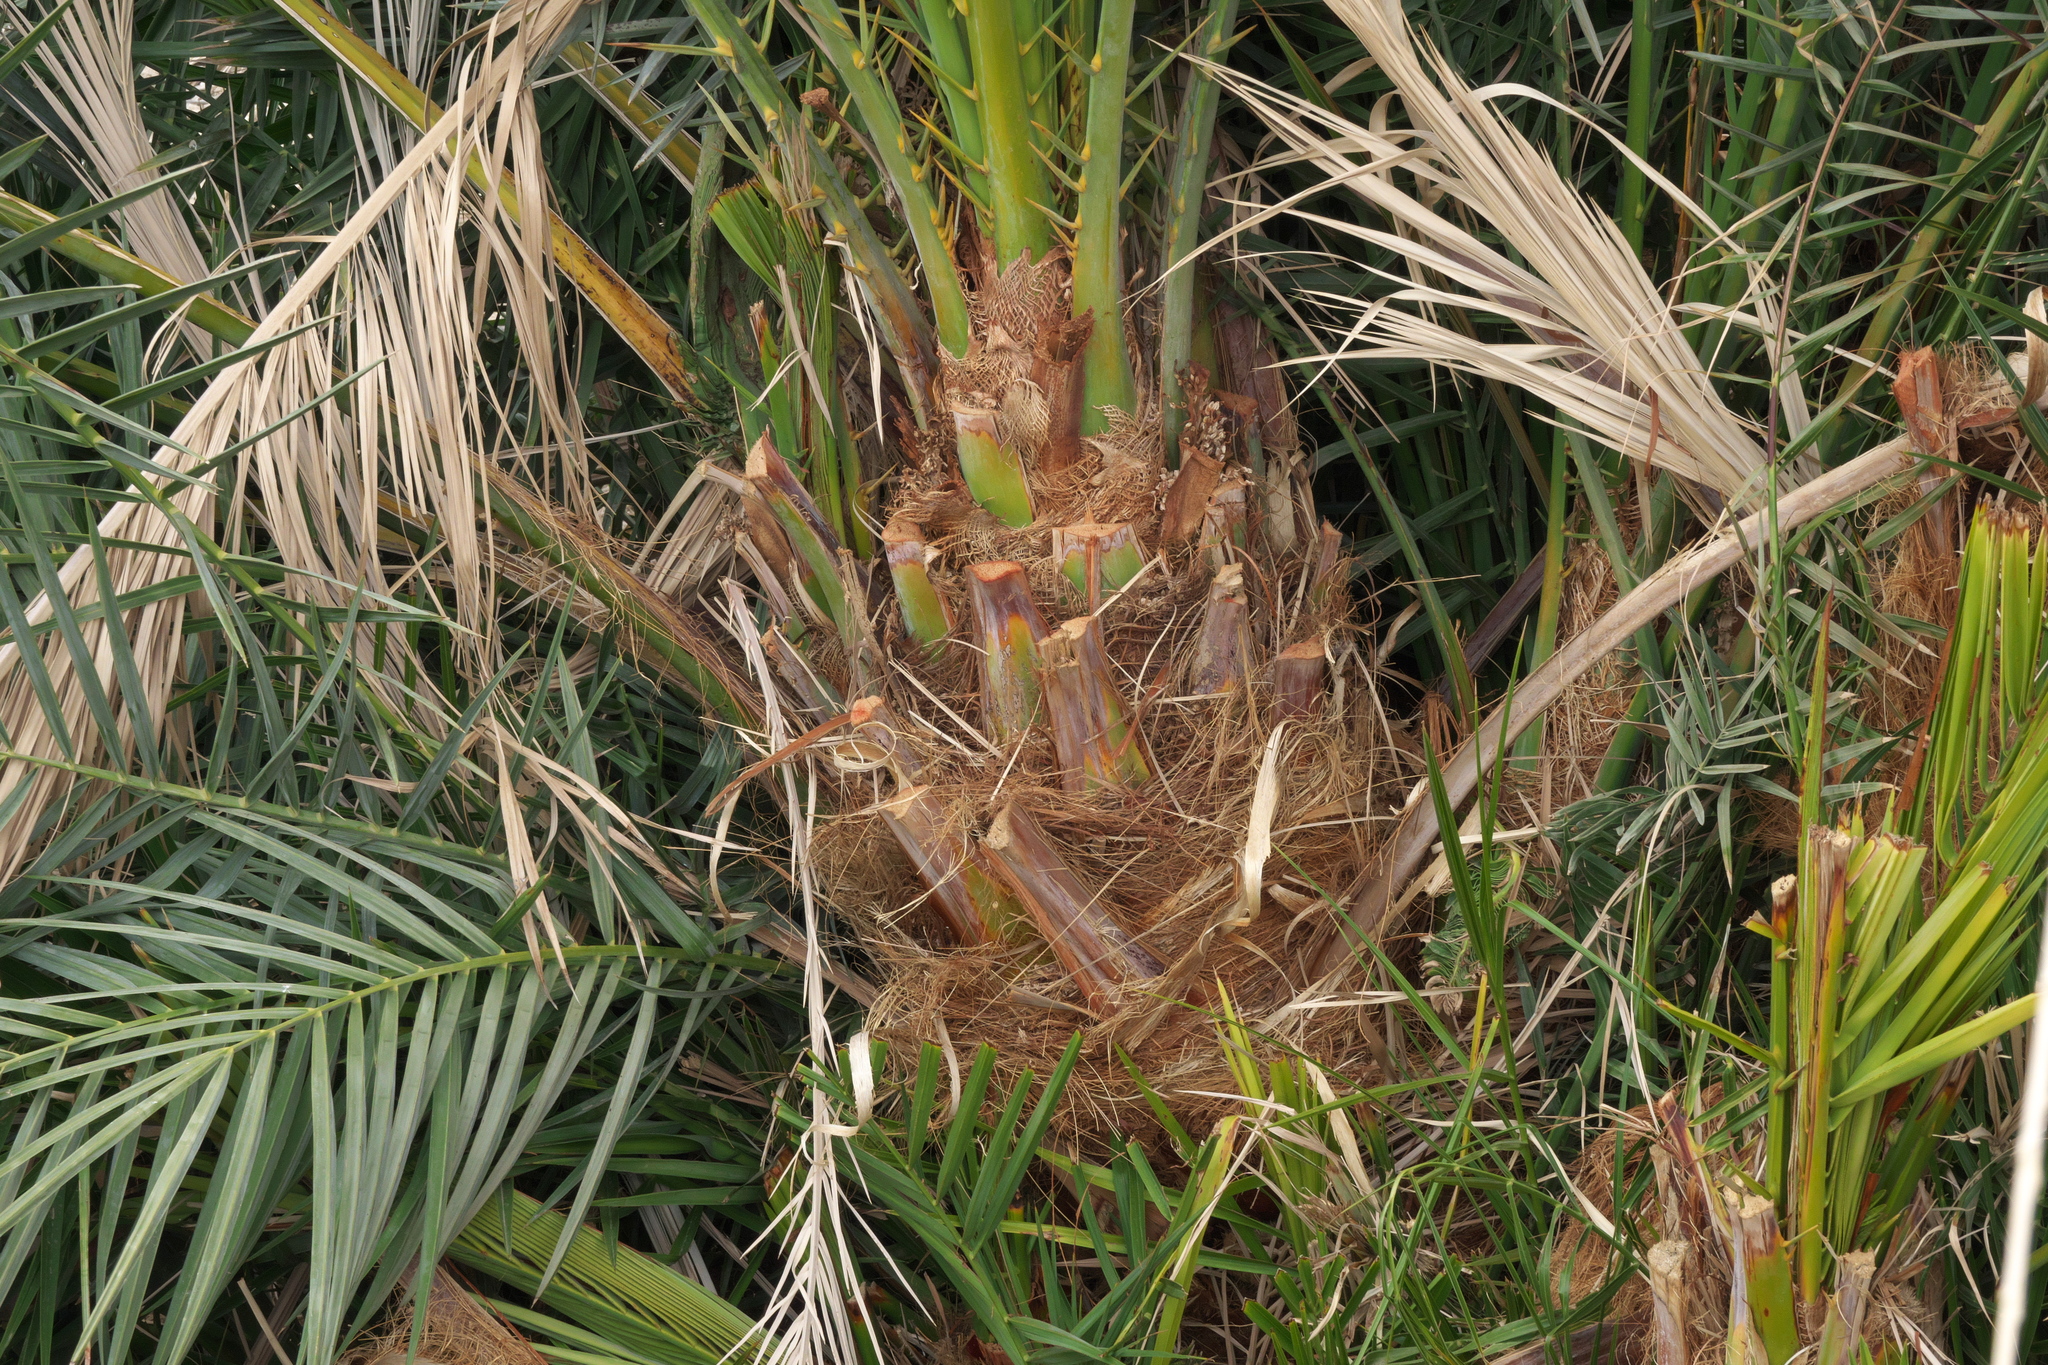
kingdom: Plantae
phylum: Tracheophyta
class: Liliopsida
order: Arecales
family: Arecaceae
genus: Phoenix
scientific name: Phoenix dactylifera
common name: Date palm
